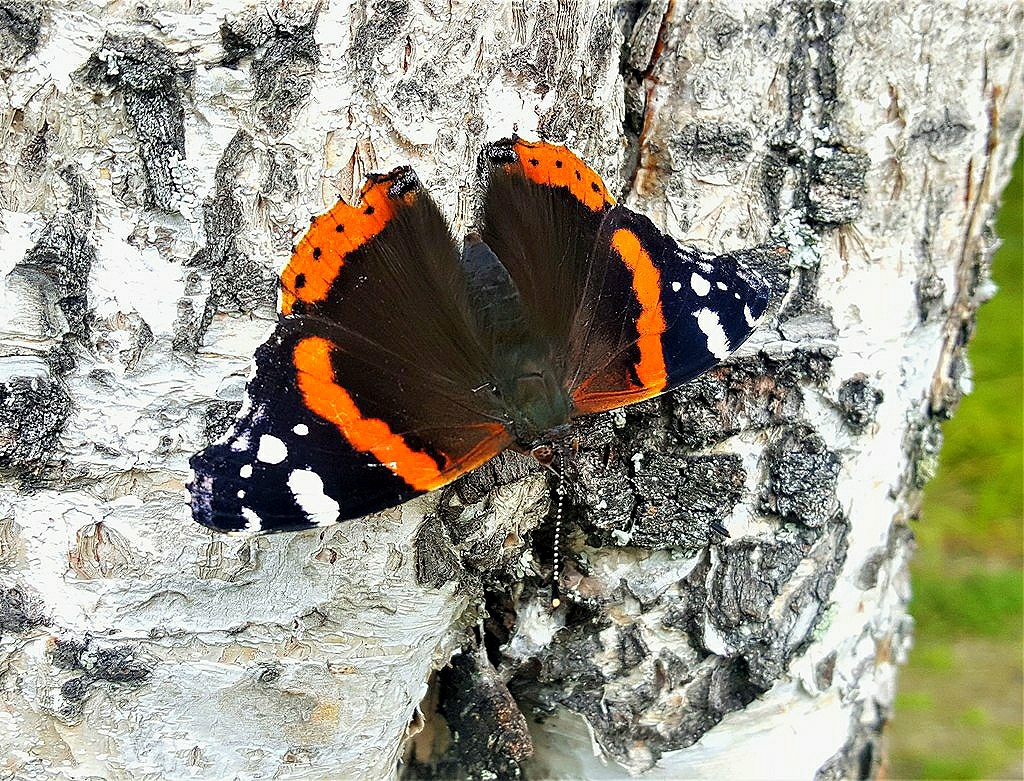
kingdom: Animalia
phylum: Arthropoda
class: Insecta
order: Lepidoptera
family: Nymphalidae
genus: Vanessa
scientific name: Vanessa atalanta
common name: Red admiral
